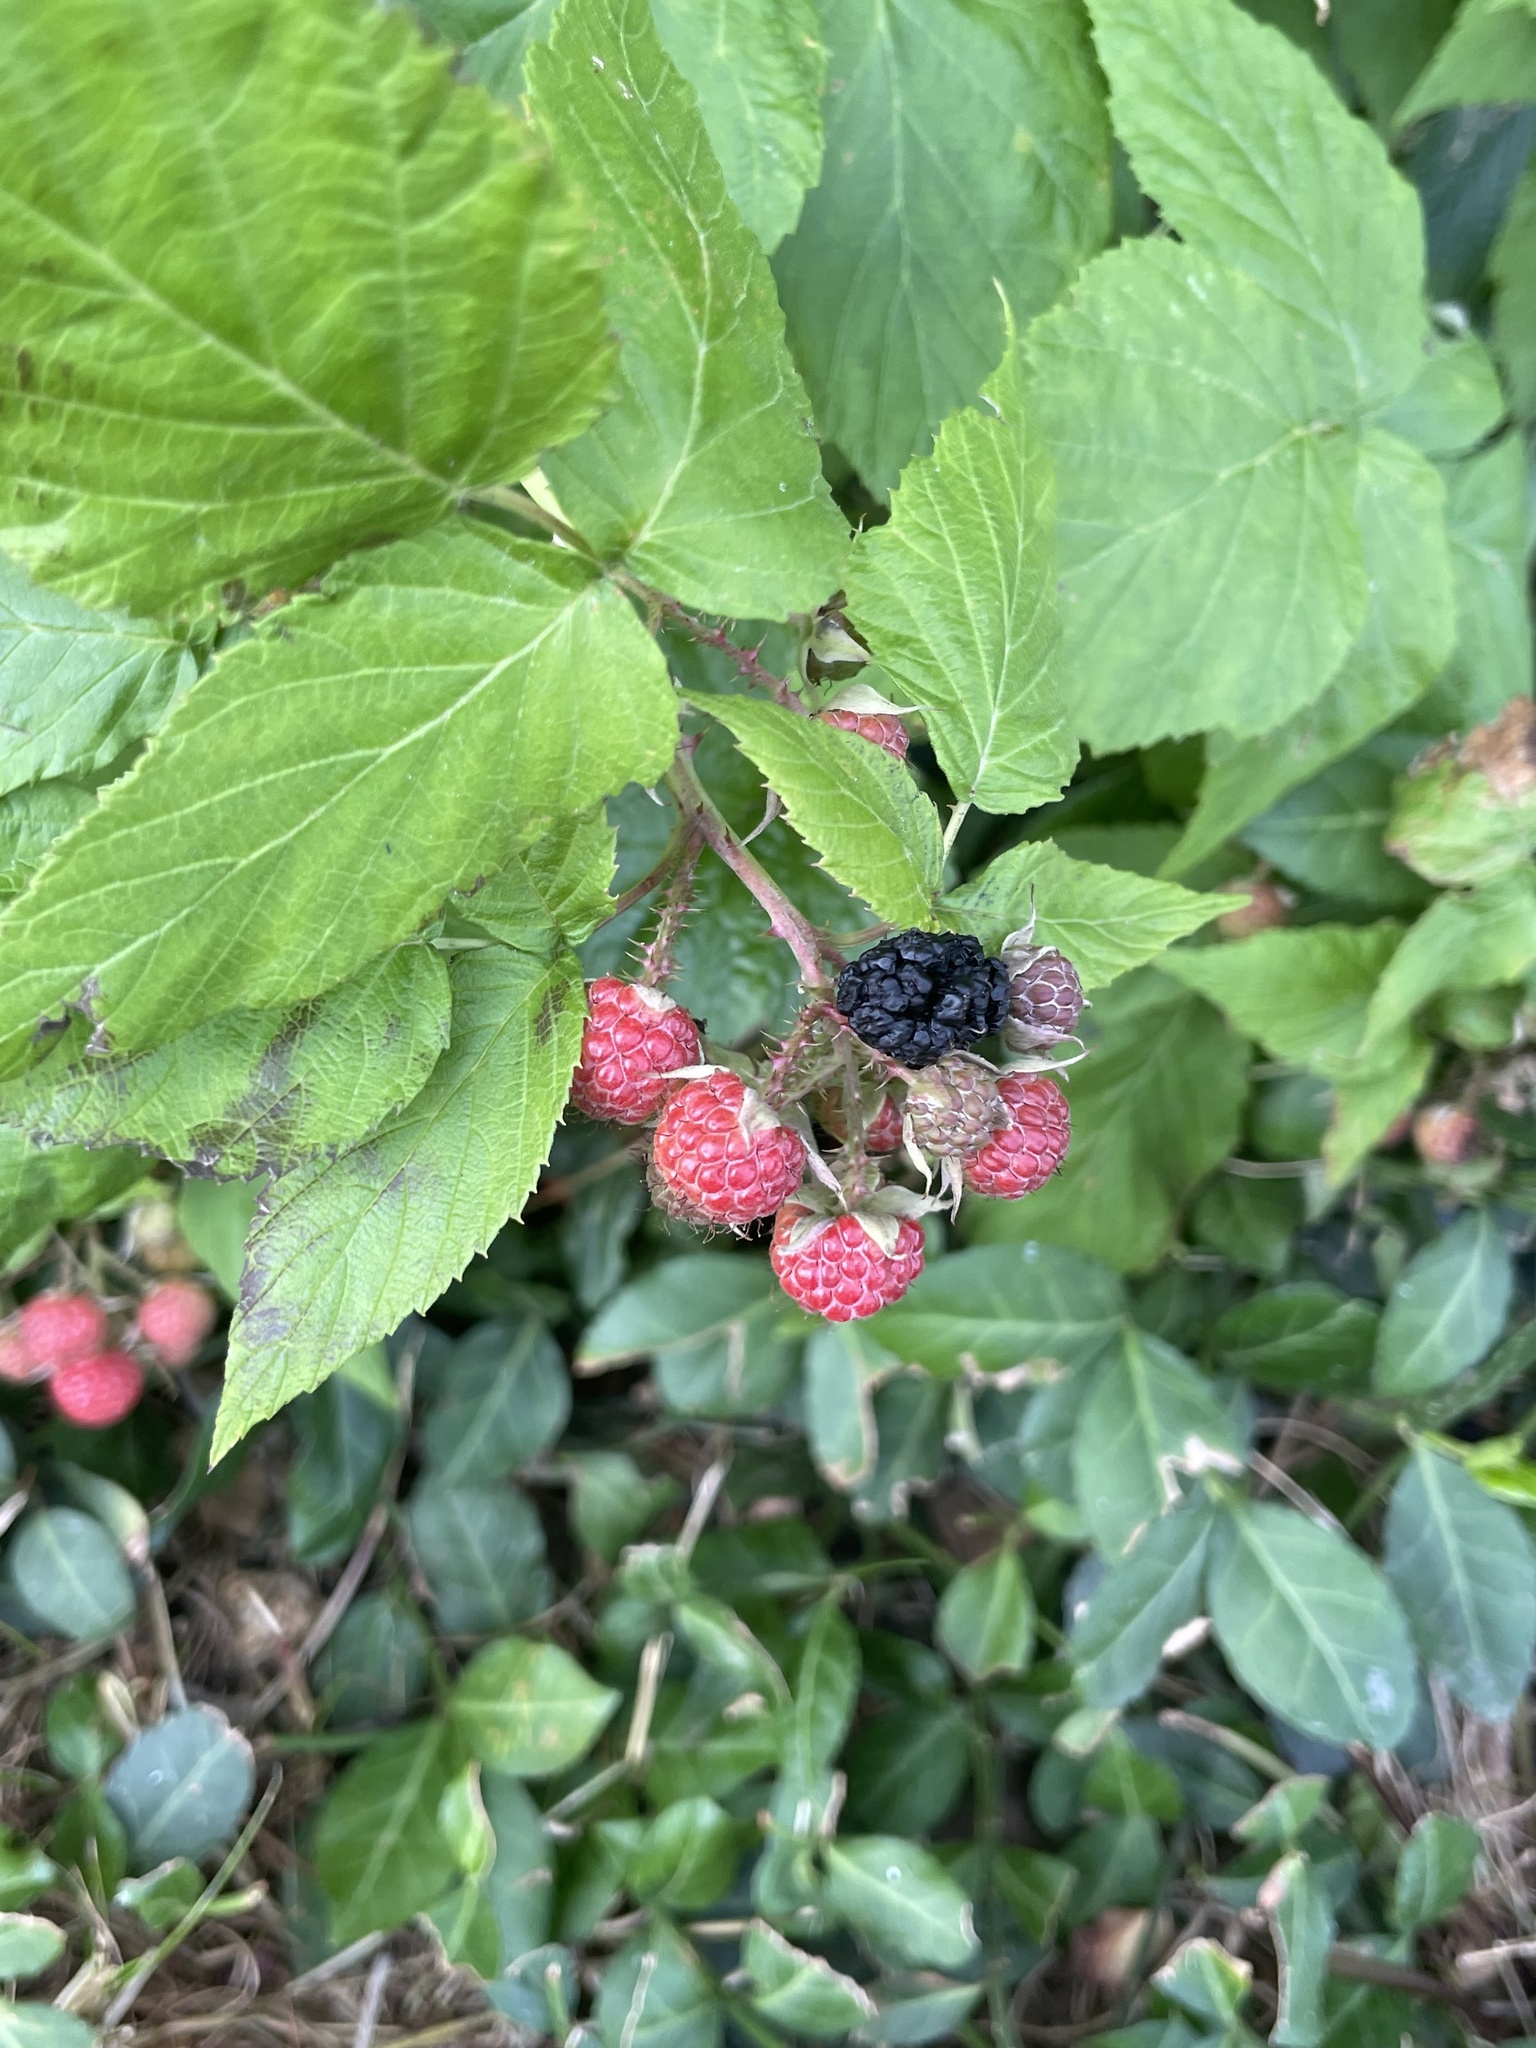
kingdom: Plantae
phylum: Tracheophyta
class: Magnoliopsida
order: Rosales
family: Rosaceae
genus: Rubus
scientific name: Rubus occidentalis
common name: Black raspberry
